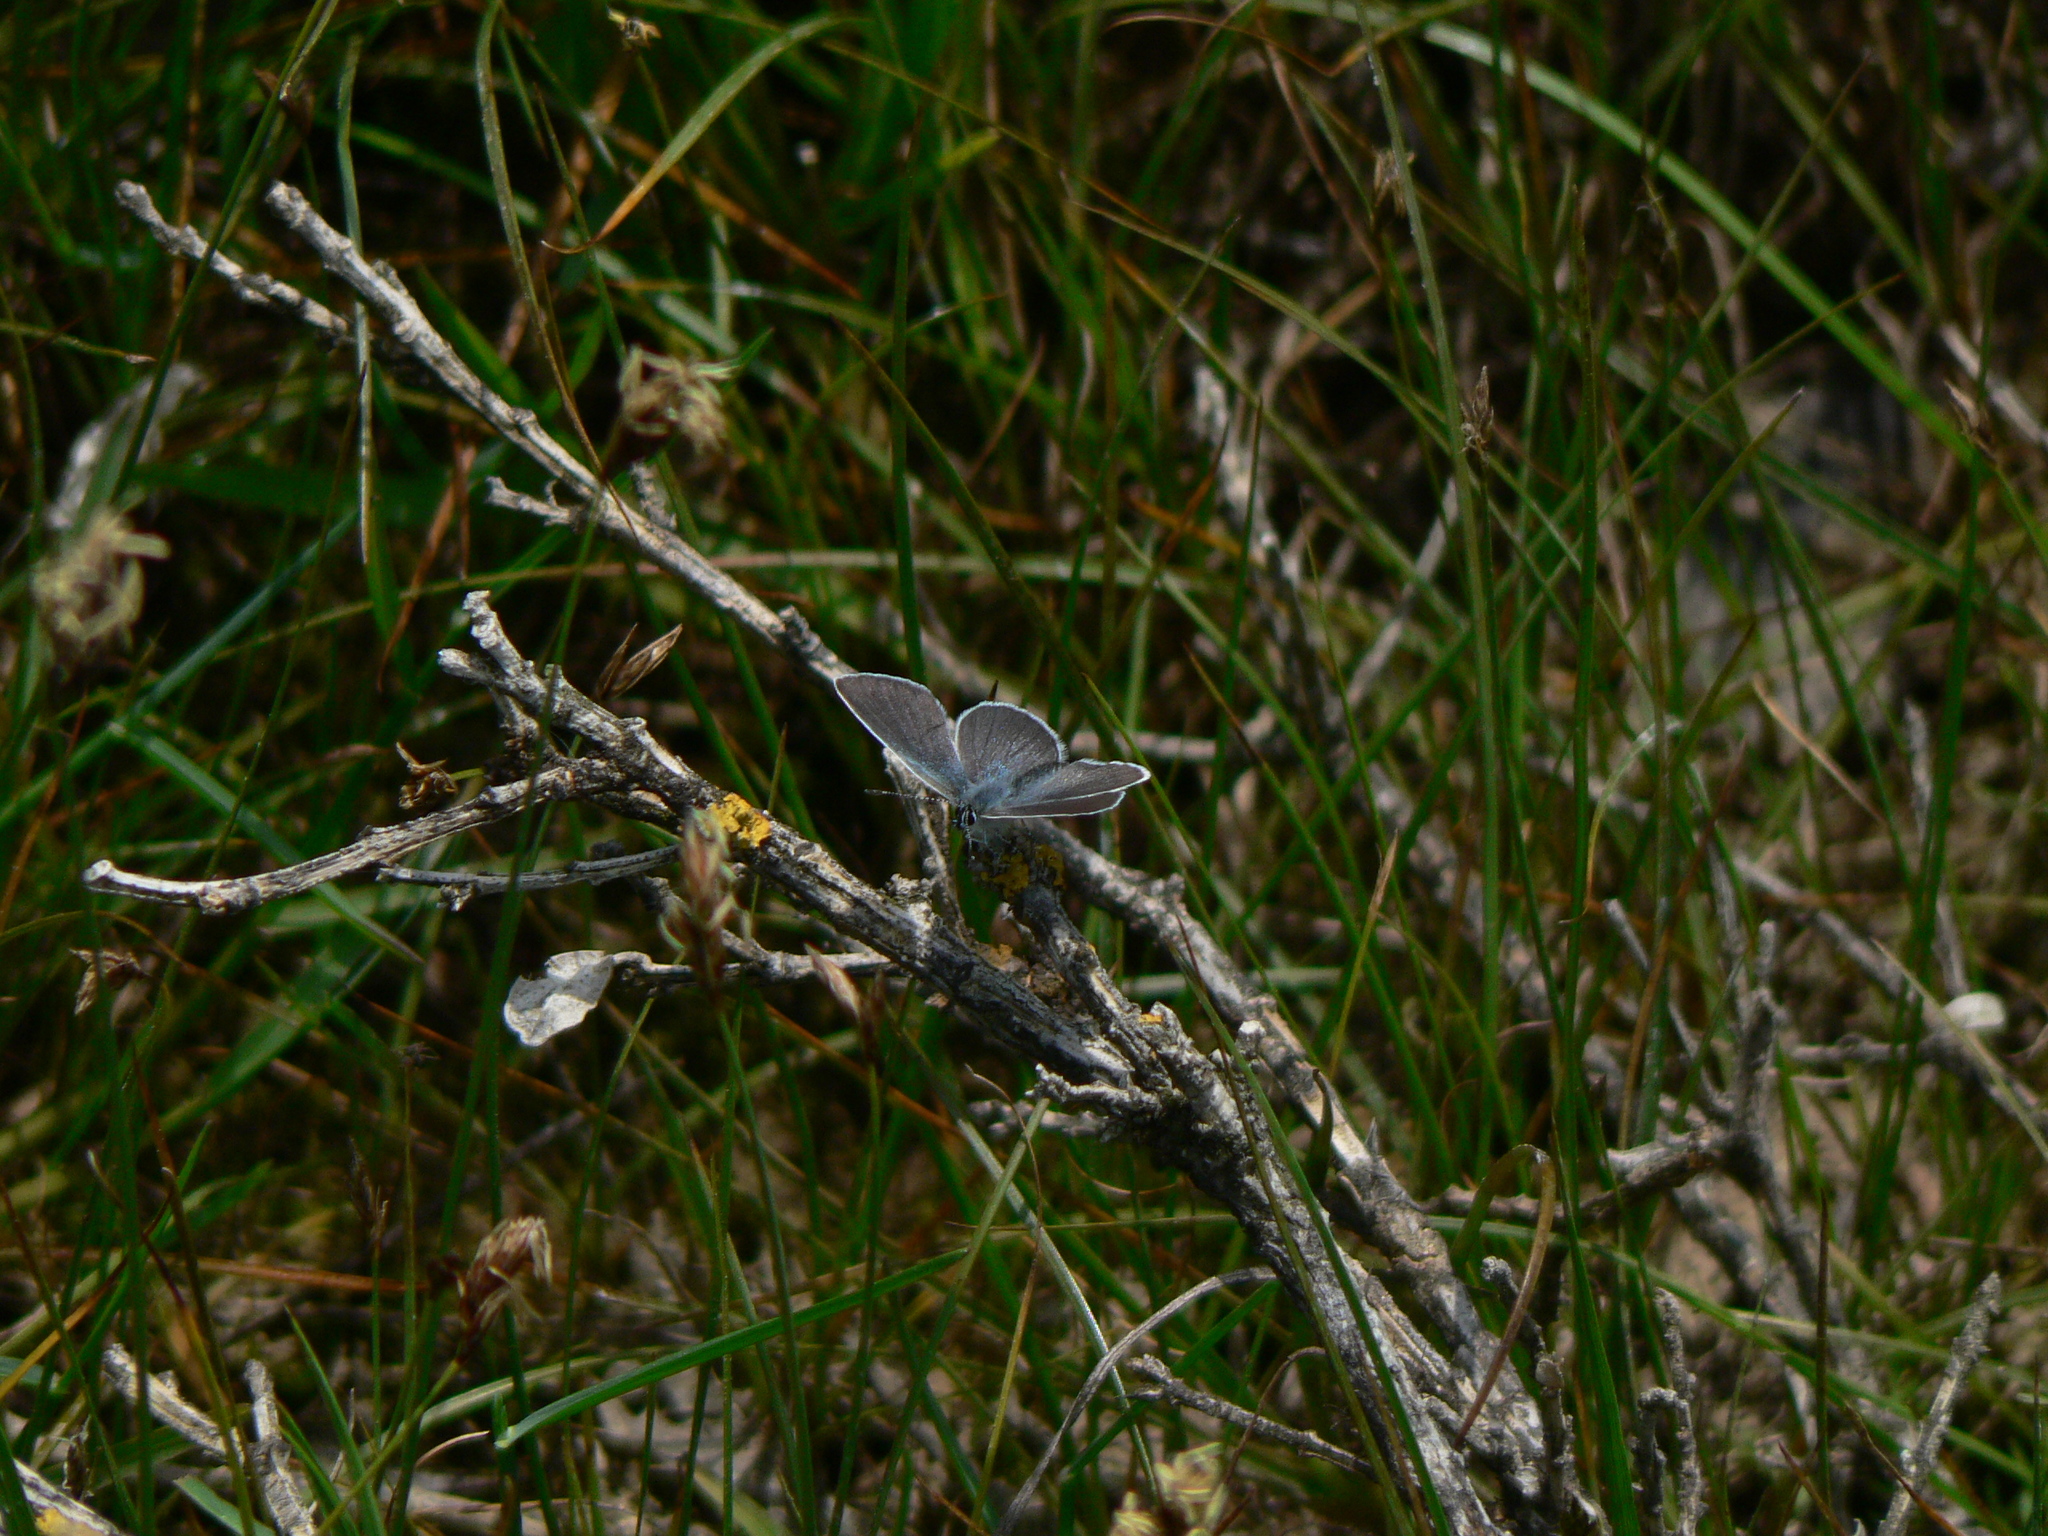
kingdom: Animalia
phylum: Arthropoda
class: Insecta
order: Lepidoptera
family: Lycaenidae
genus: Cupido
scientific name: Cupido minimus
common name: Small blue
